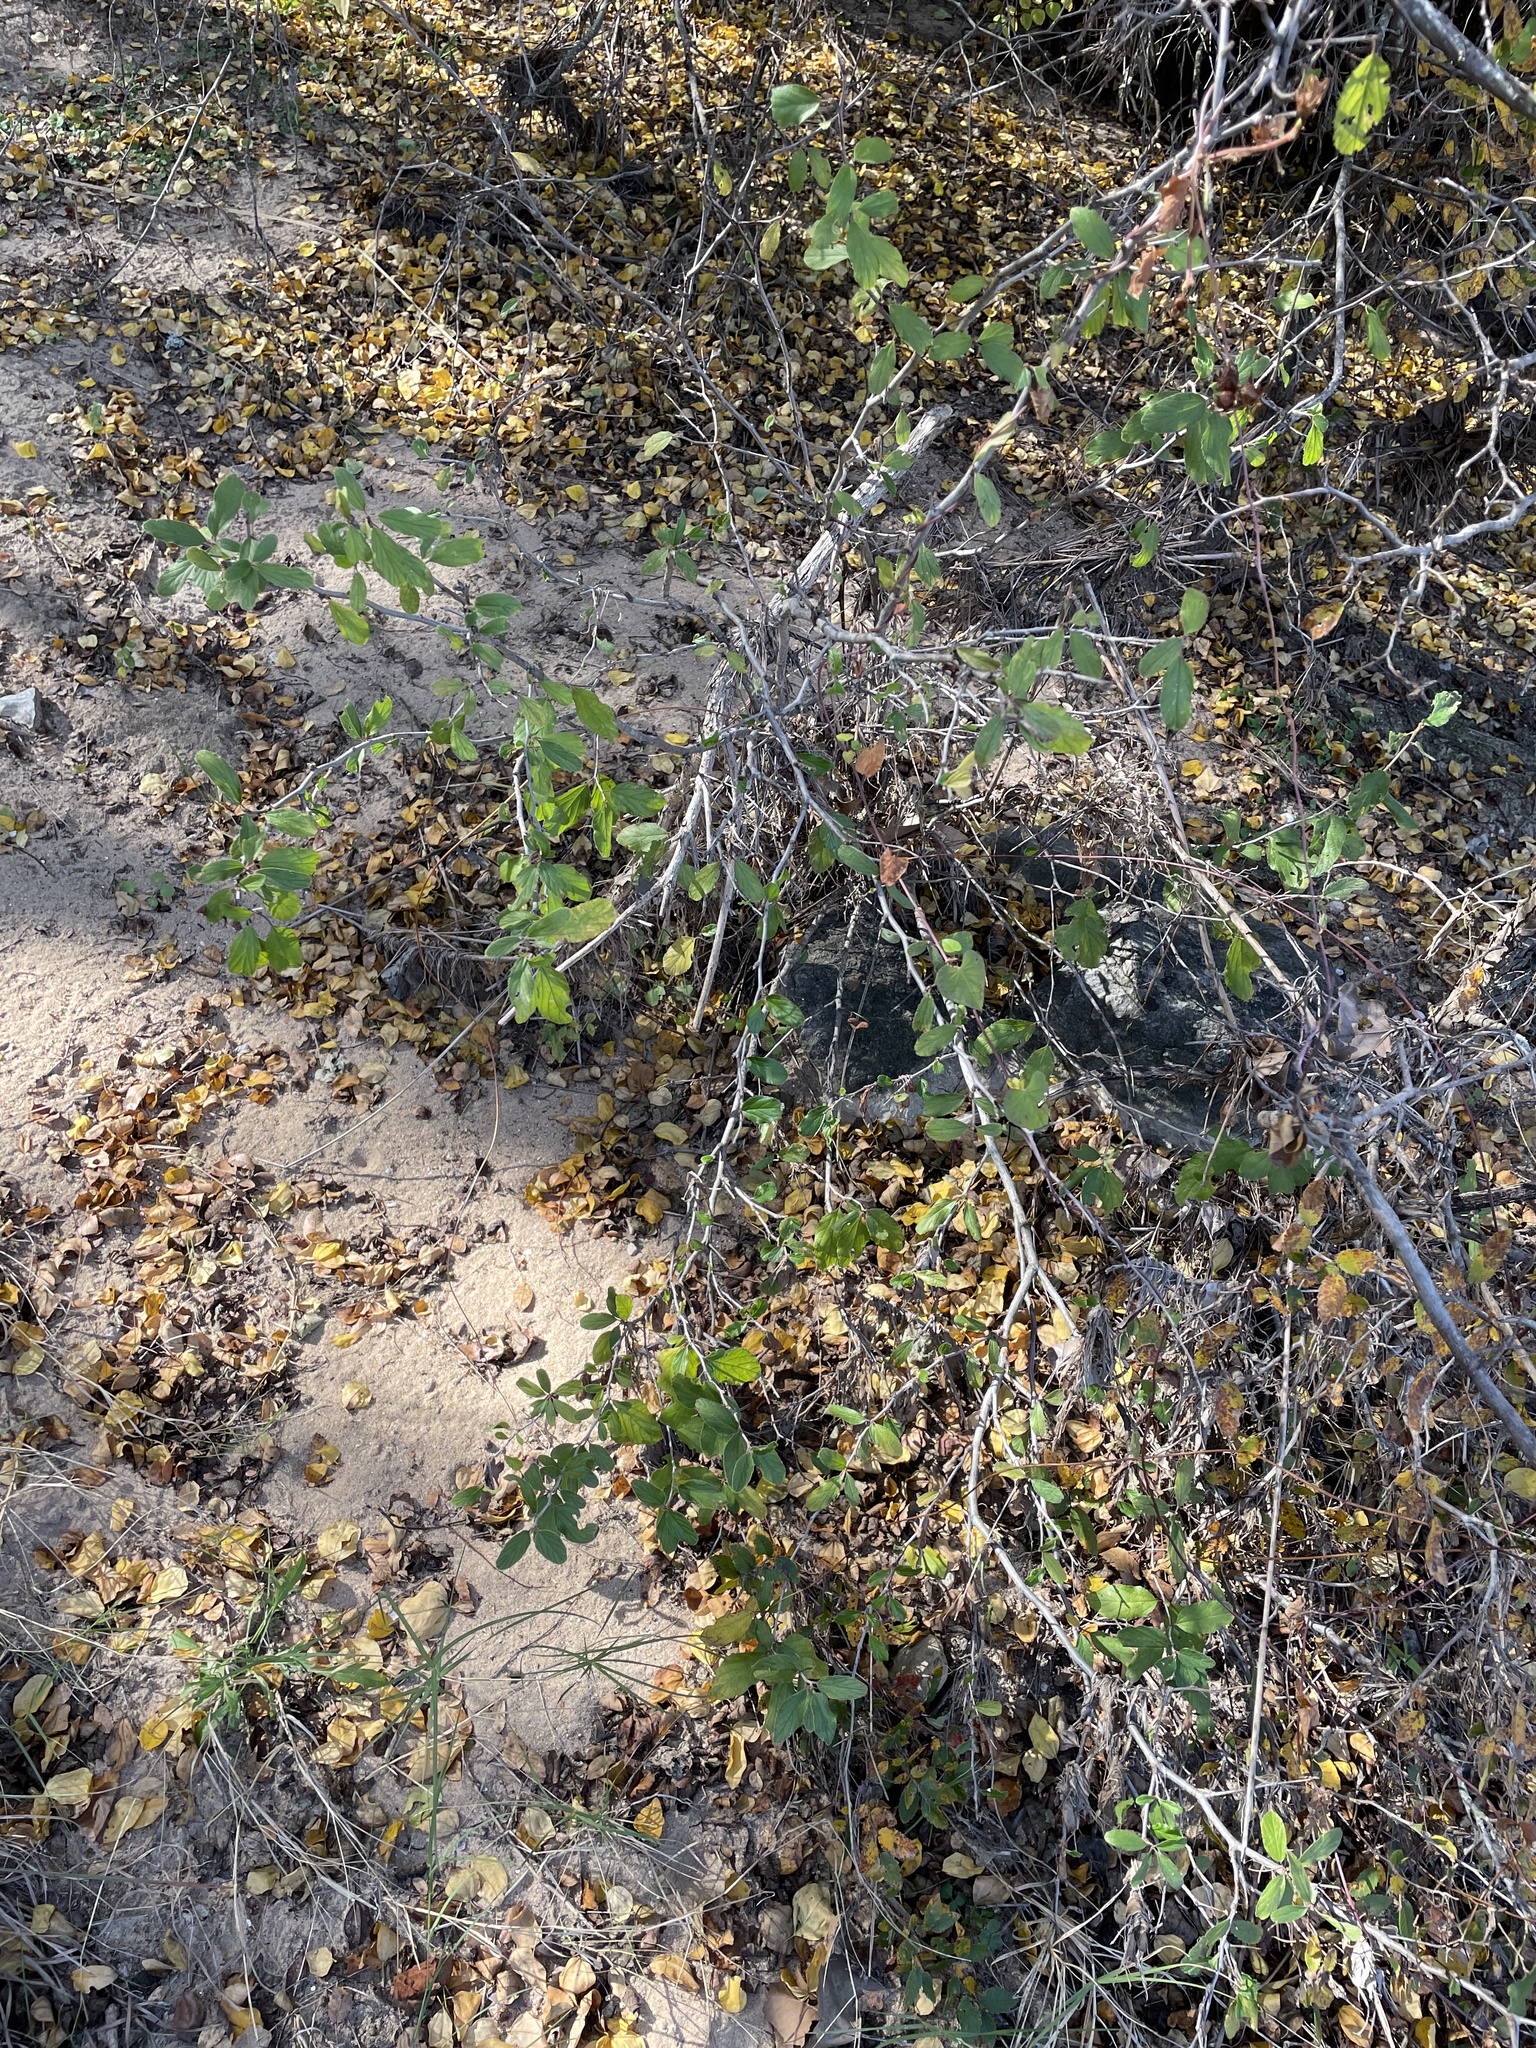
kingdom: Plantae
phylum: Tracheophyta
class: Magnoliopsida
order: Rosales
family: Rhamnaceae
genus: Colubrina
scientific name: Colubrina texensis
